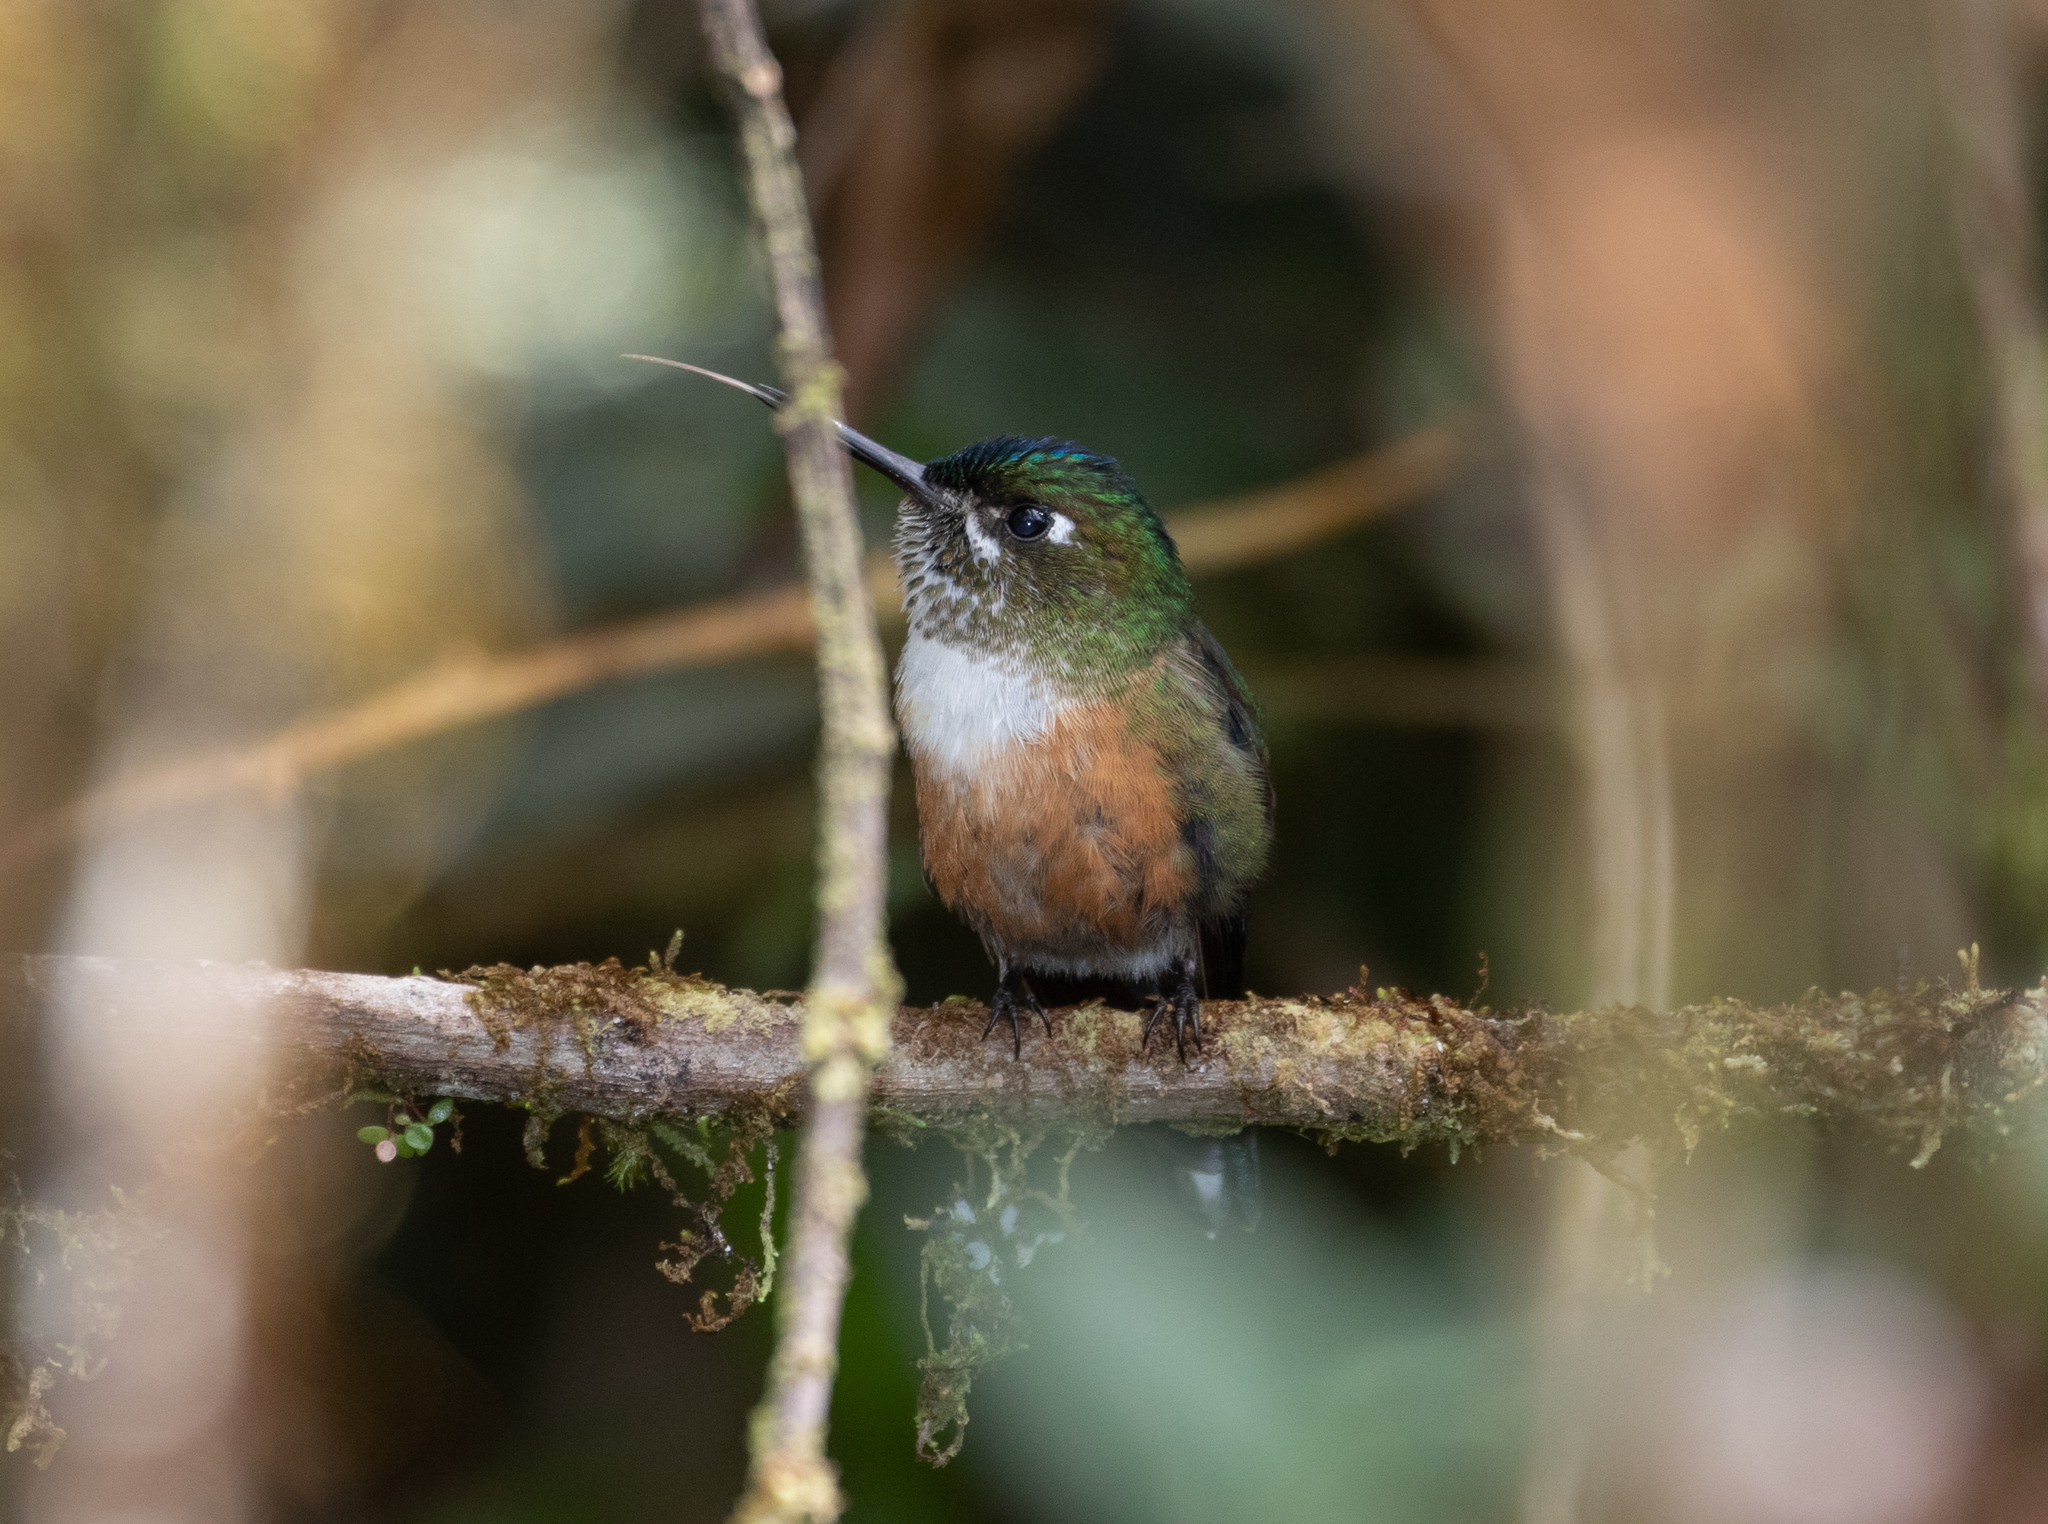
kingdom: Animalia
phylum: Chordata
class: Aves
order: Apodiformes
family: Trochilidae
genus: Aglaiocercus
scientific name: Aglaiocercus coelestis
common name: Violet-tailed sylph
